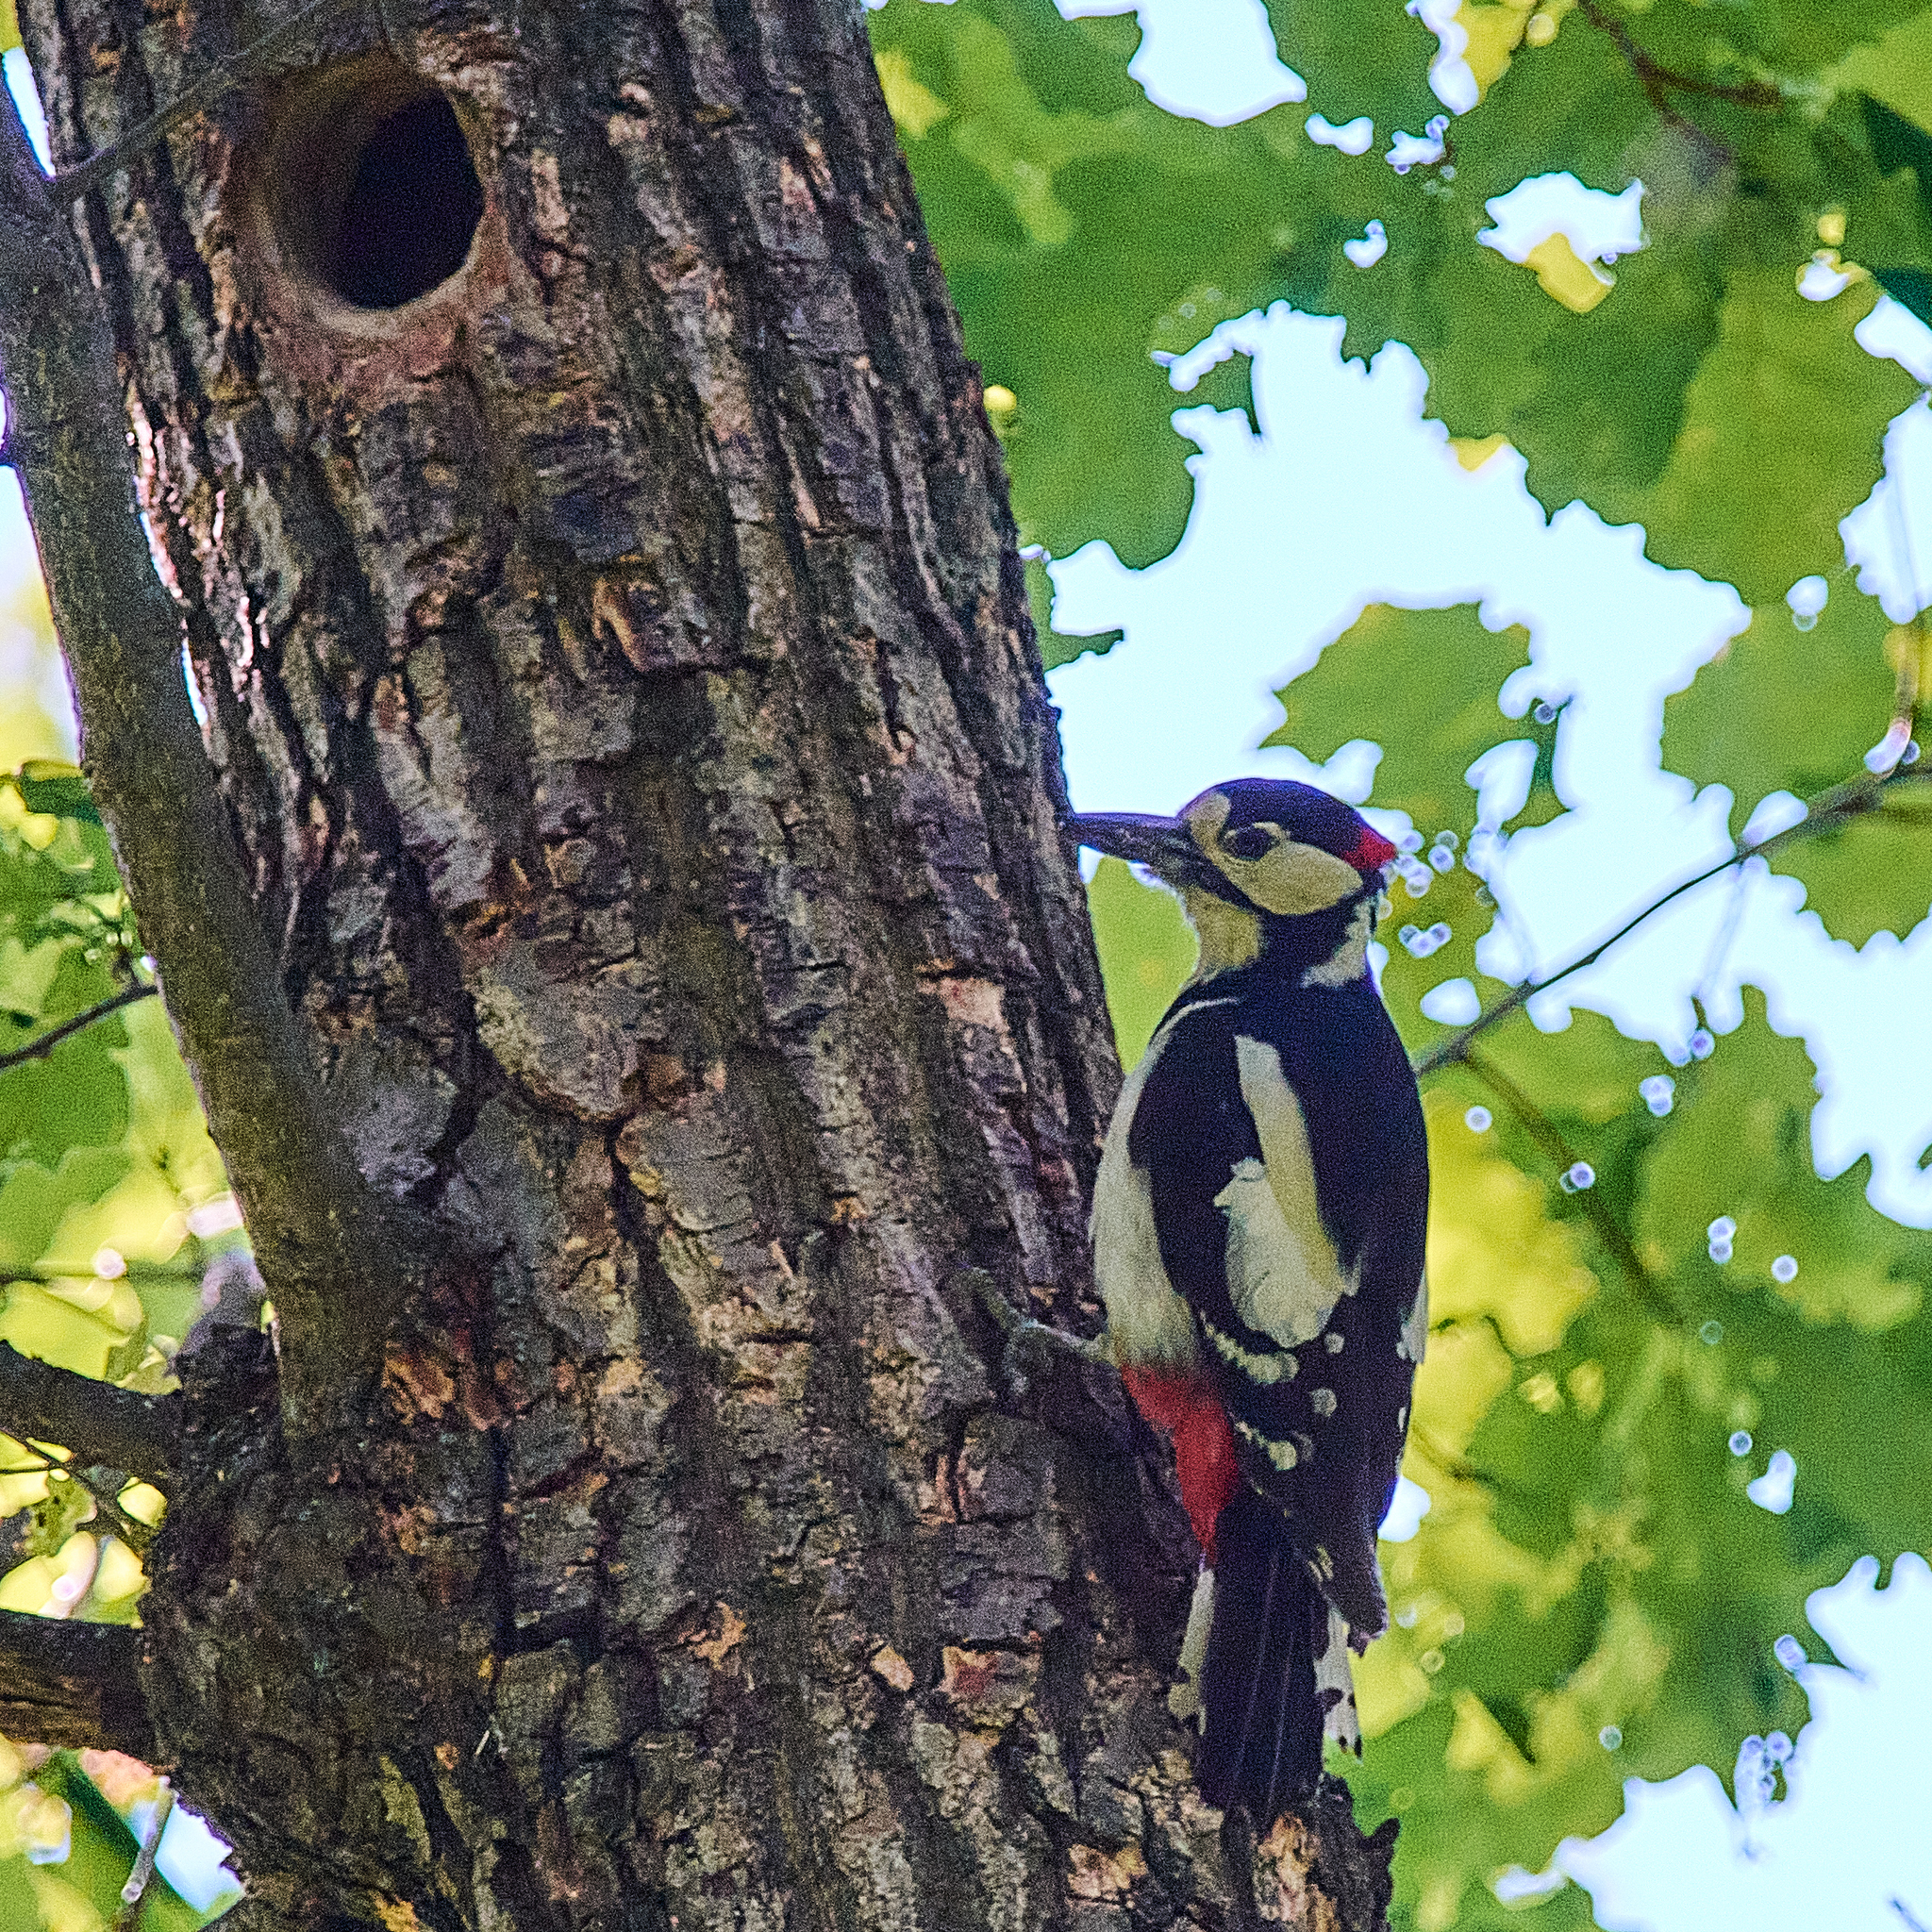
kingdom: Animalia
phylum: Chordata
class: Aves
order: Piciformes
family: Picidae
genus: Dendrocopos
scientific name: Dendrocopos major
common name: Great spotted woodpecker
